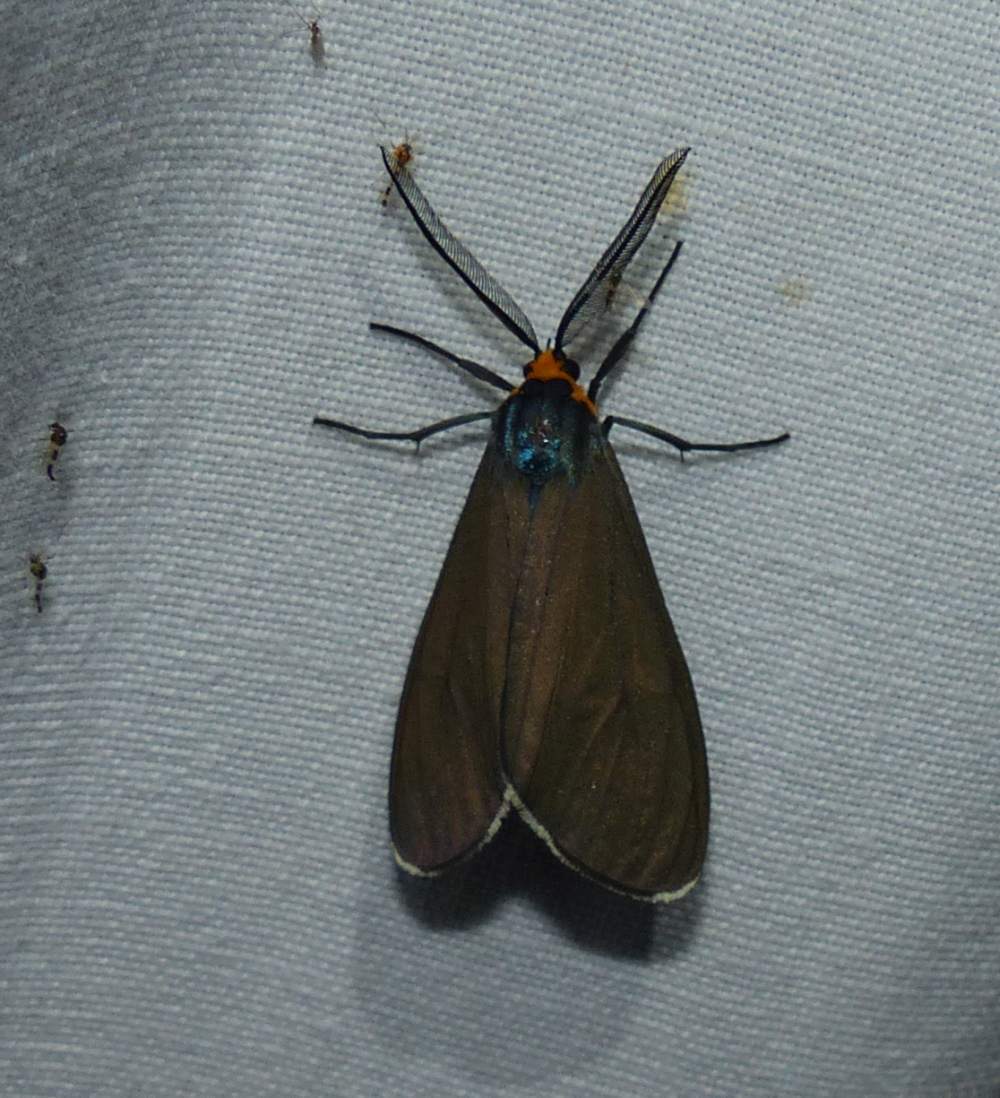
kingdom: Animalia
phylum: Arthropoda
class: Insecta
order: Lepidoptera
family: Erebidae
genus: Ctenucha
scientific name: Ctenucha virginica
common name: Virginia ctenucha moth
